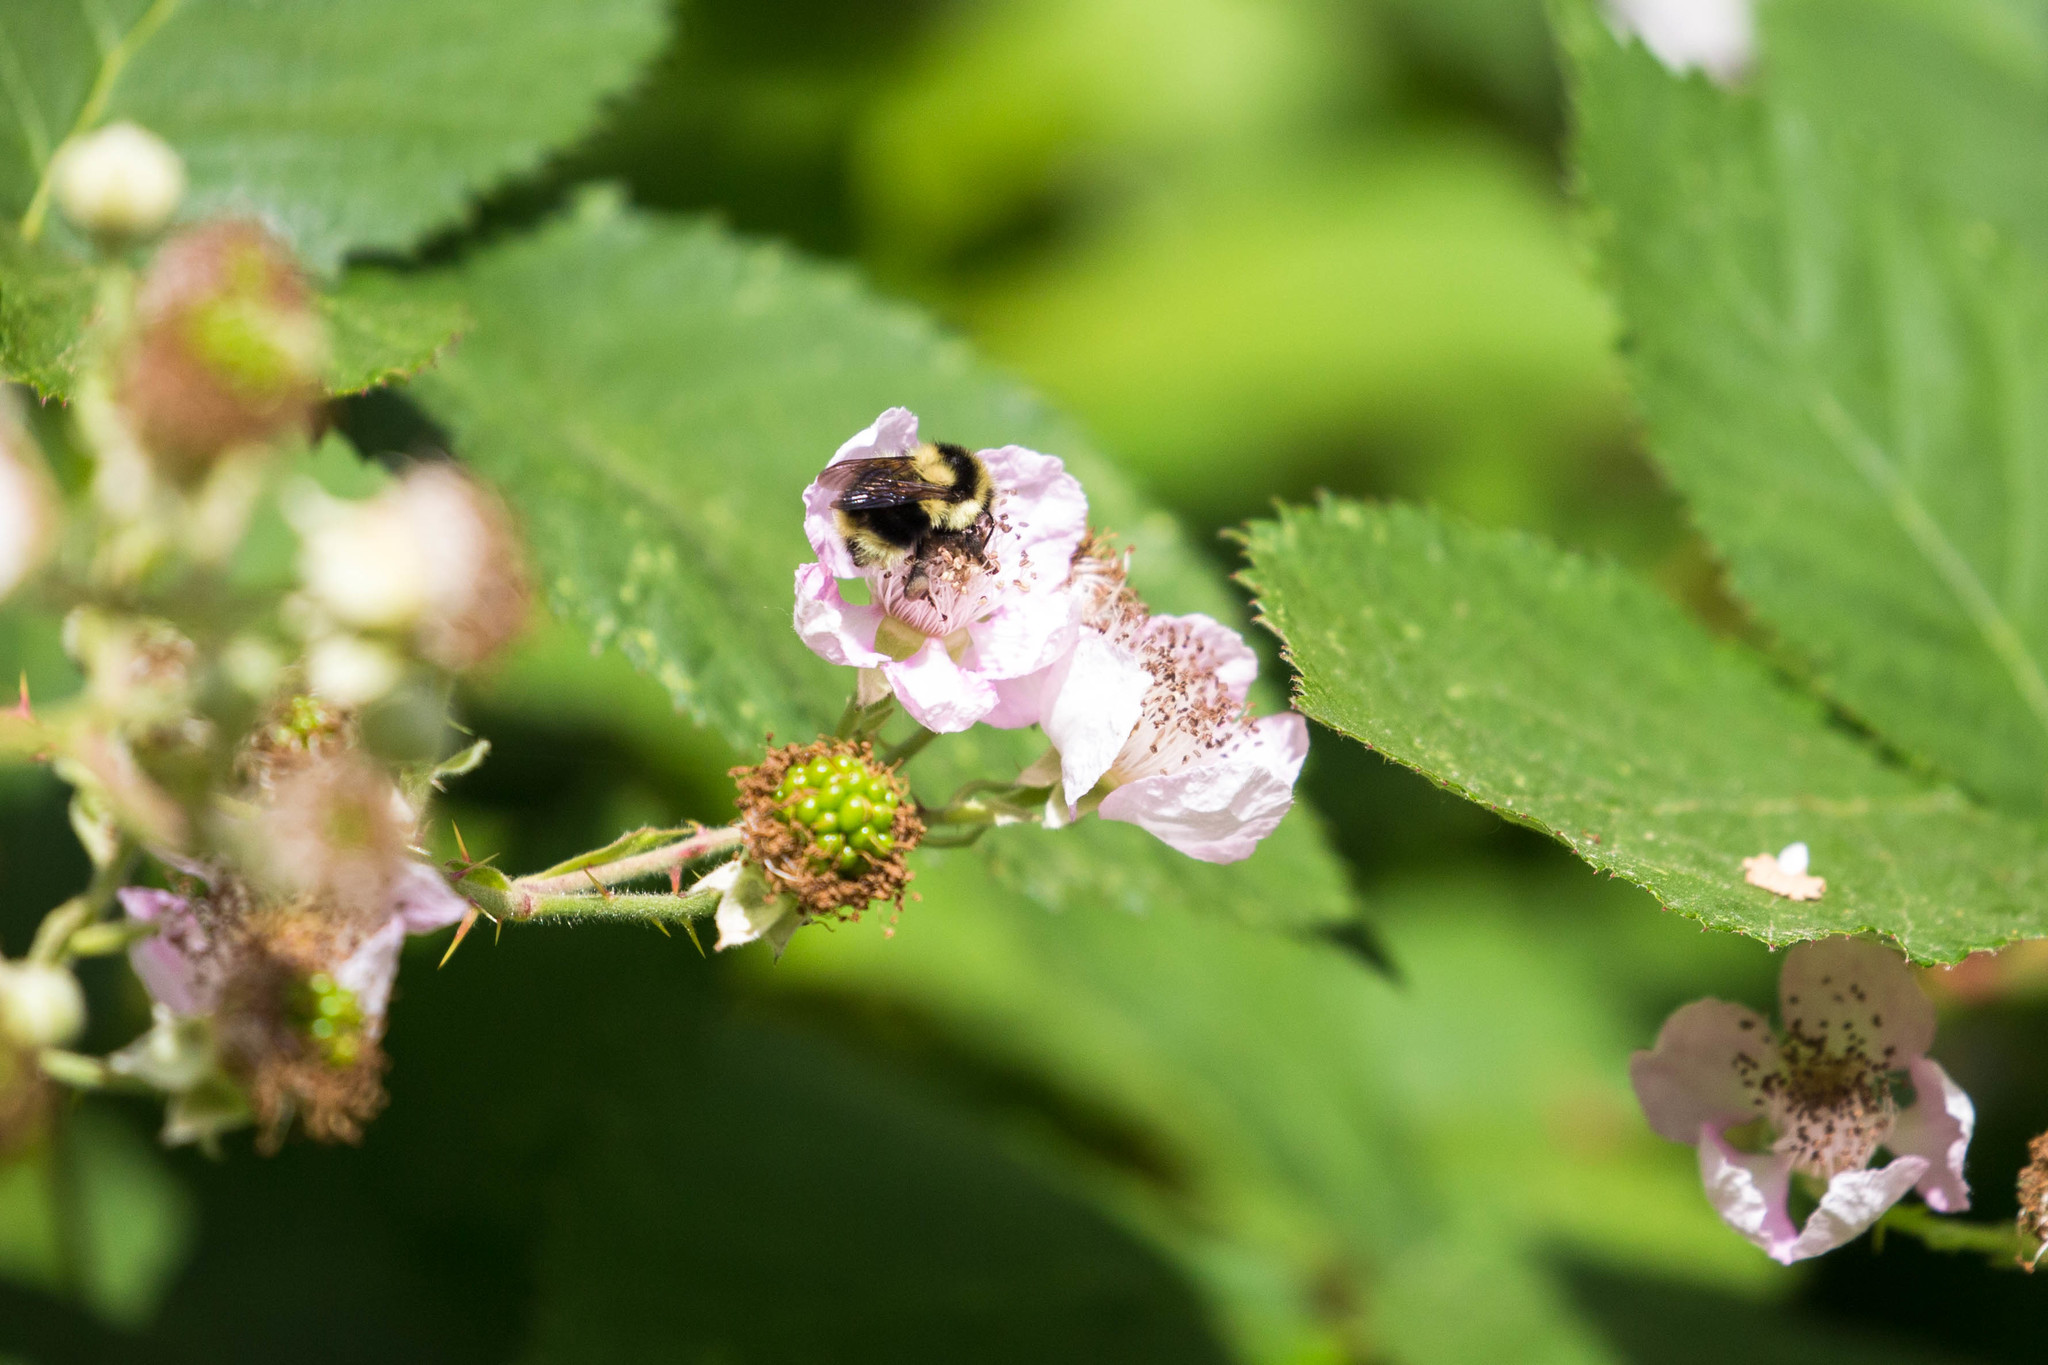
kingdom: Animalia
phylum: Arthropoda
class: Insecta
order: Hymenoptera
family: Apidae
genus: Bombus
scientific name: Bombus melanopygus
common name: Black tail bumble bee
